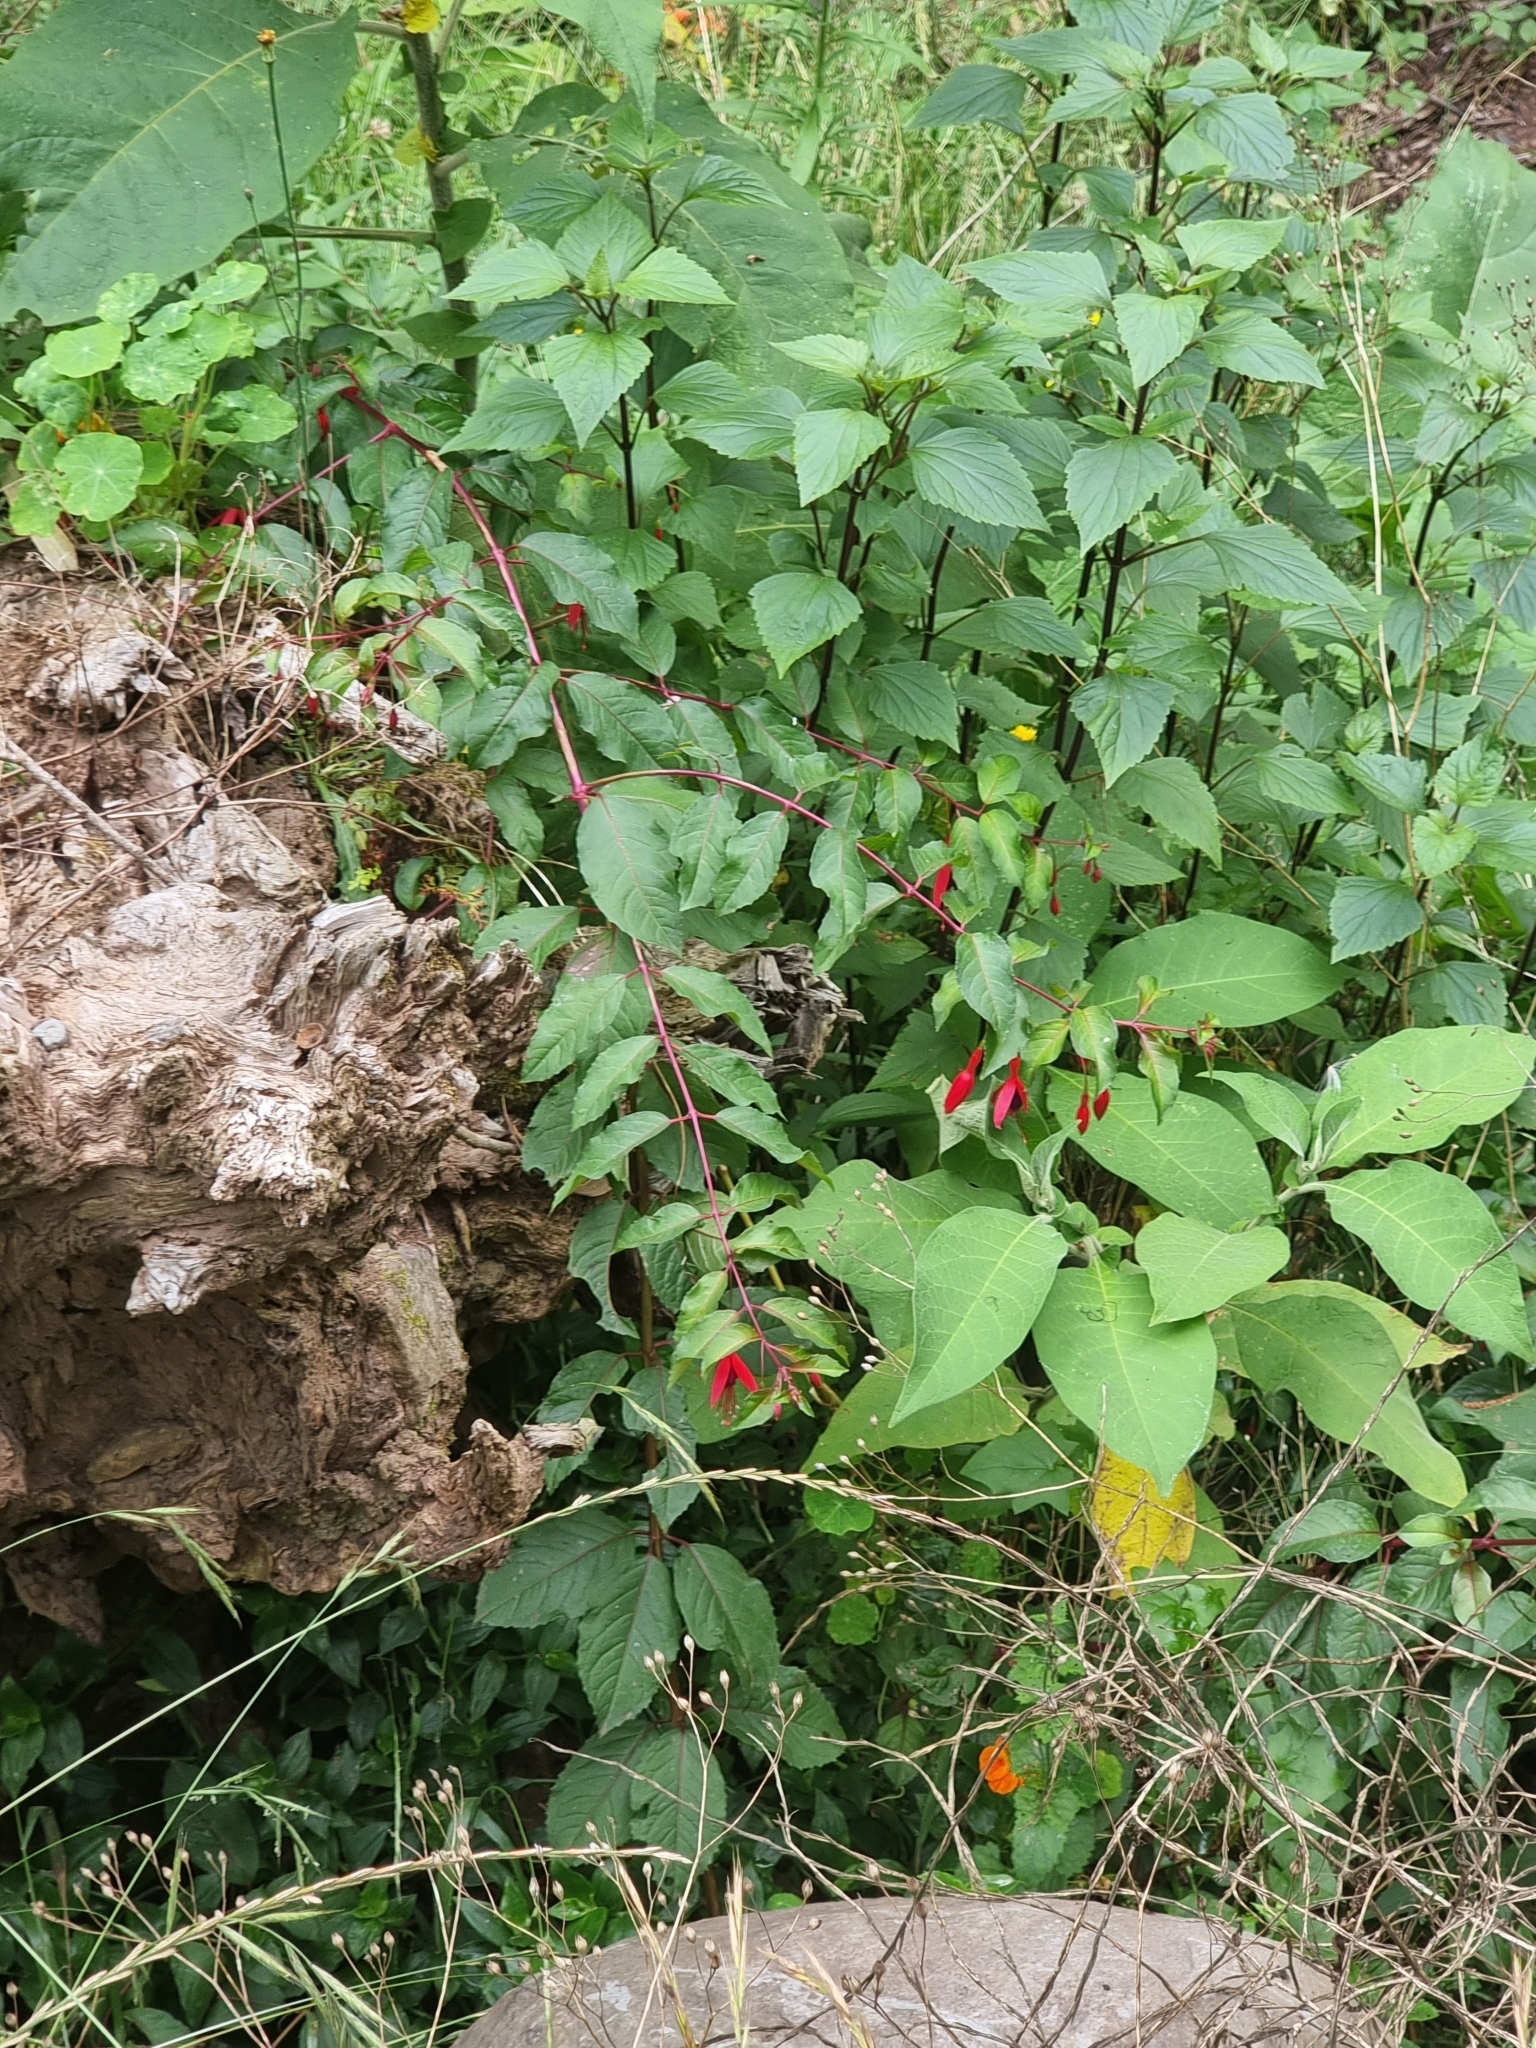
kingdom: Plantae
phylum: Tracheophyta
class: Magnoliopsida
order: Myrtales
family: Onagraceae
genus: Fuchsia
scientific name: Fuchsia magellanica
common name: Hardy fuchsia
